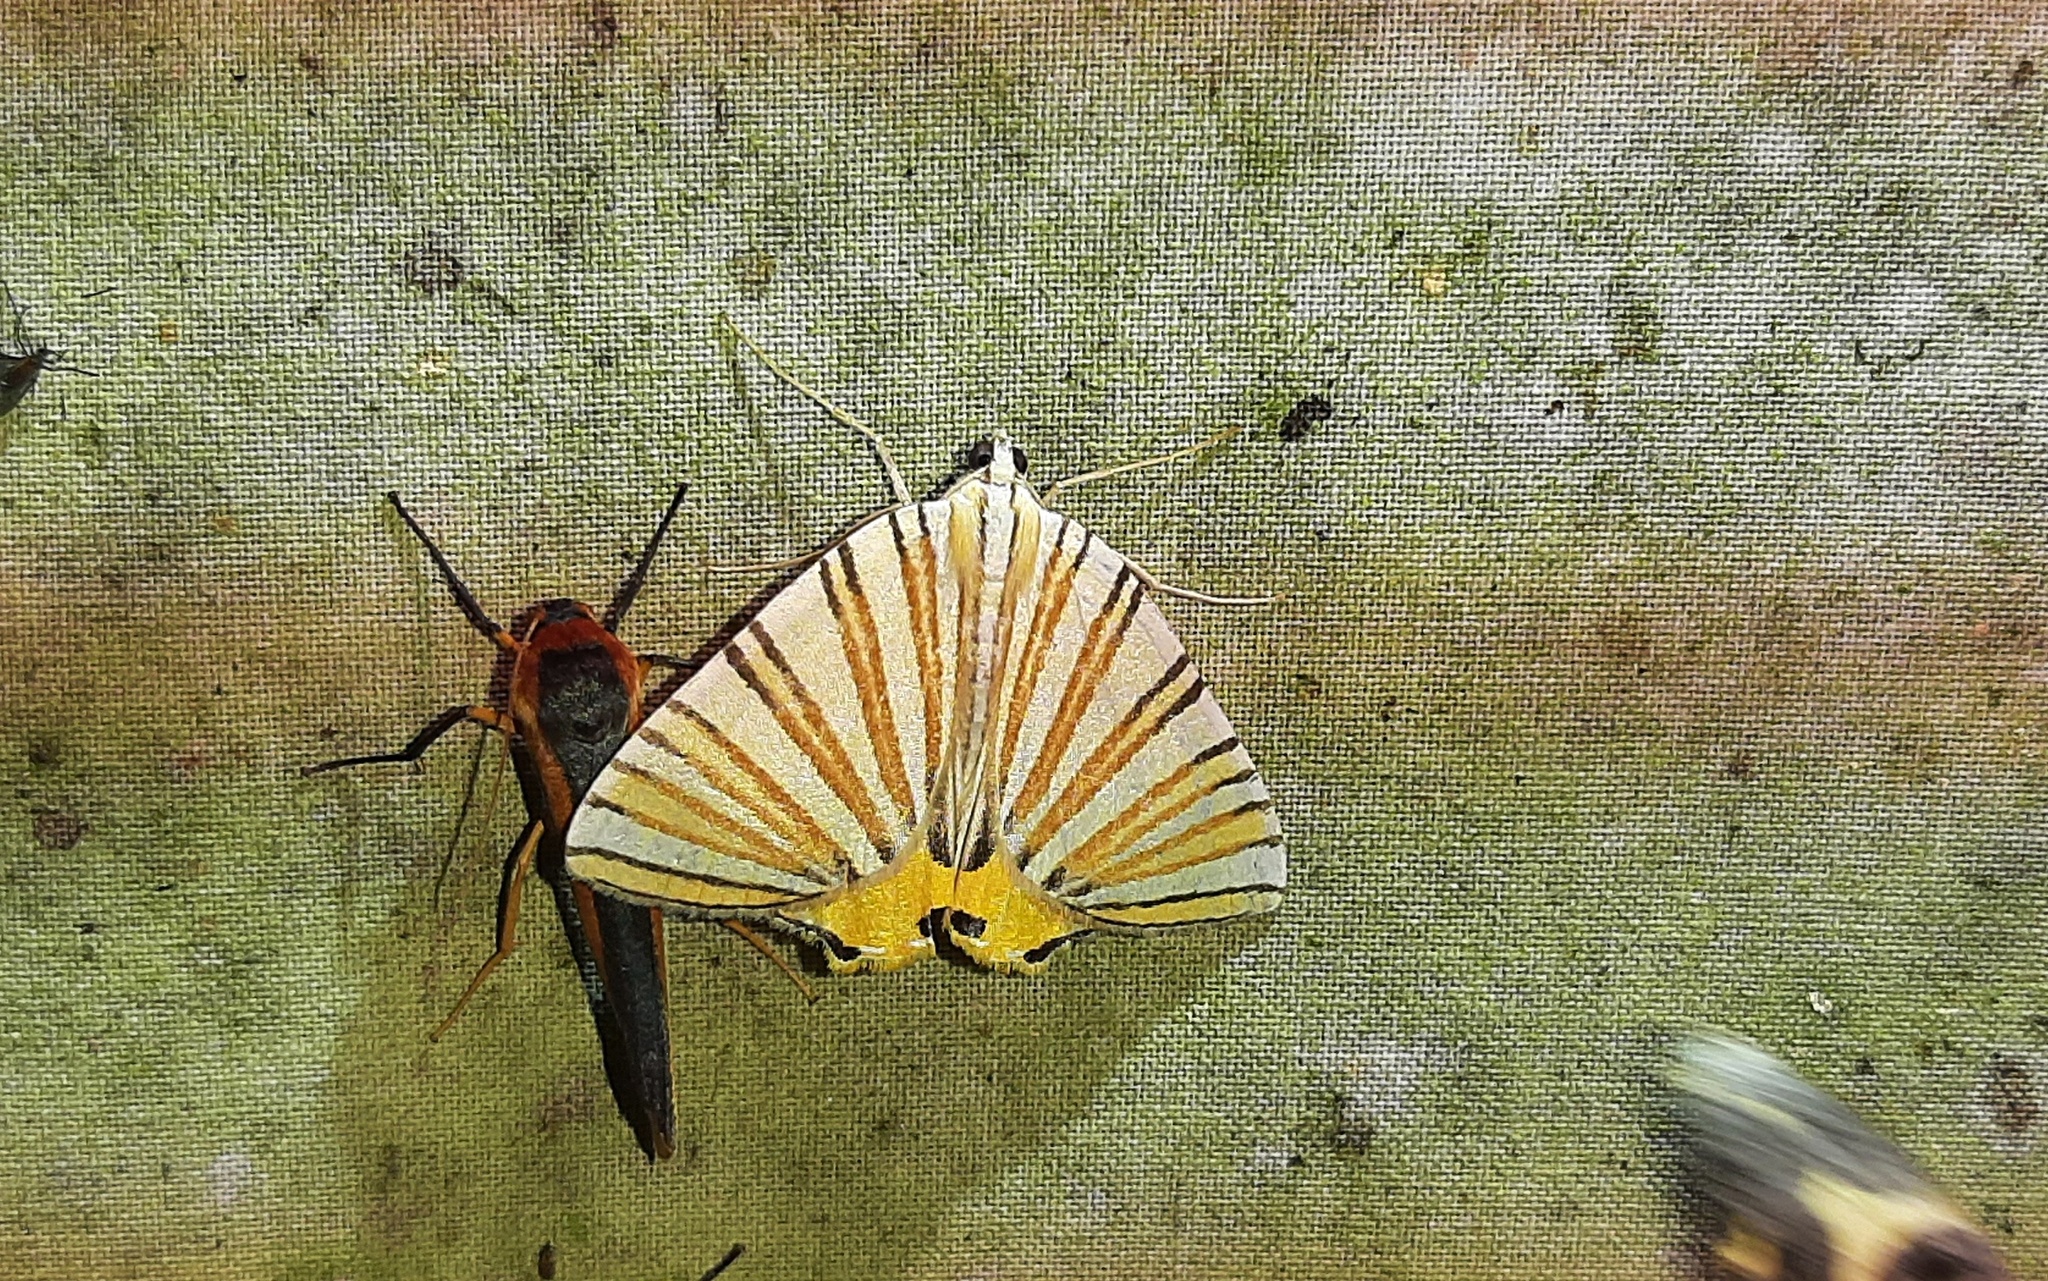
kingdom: Animalia
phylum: Arthropoda
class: Insecta
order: Lepidoptera
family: Geometridae
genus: Pityeja
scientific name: Pityeja histrionaria
